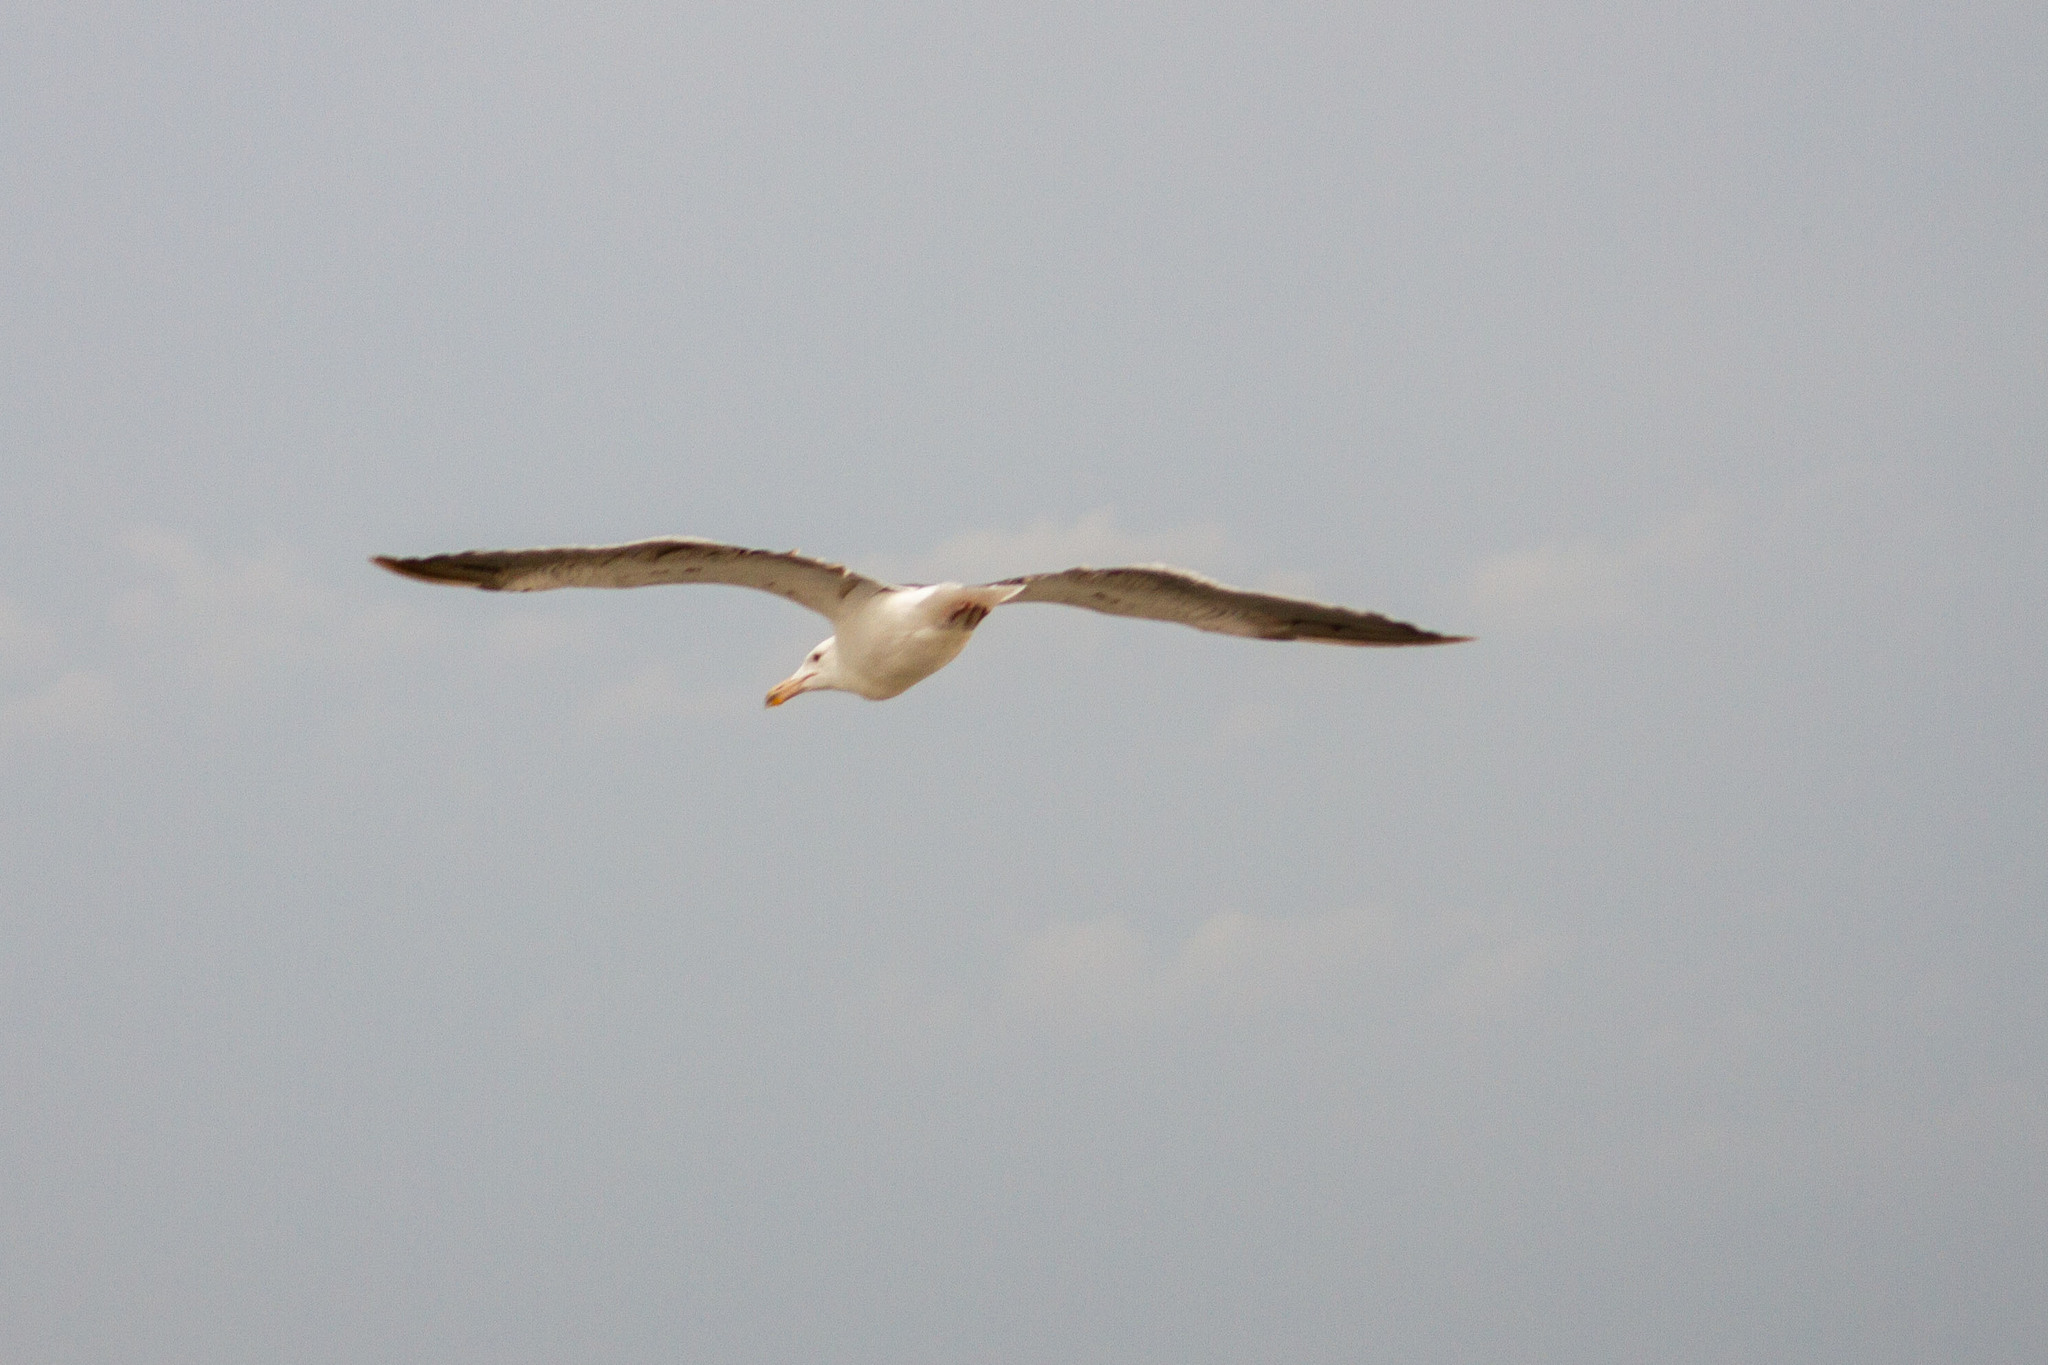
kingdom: Animalia
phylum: Chordata
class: Aves
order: Charadriiformes
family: Laridae
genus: Larus
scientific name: Larus dominicanus
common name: Kelp gull
